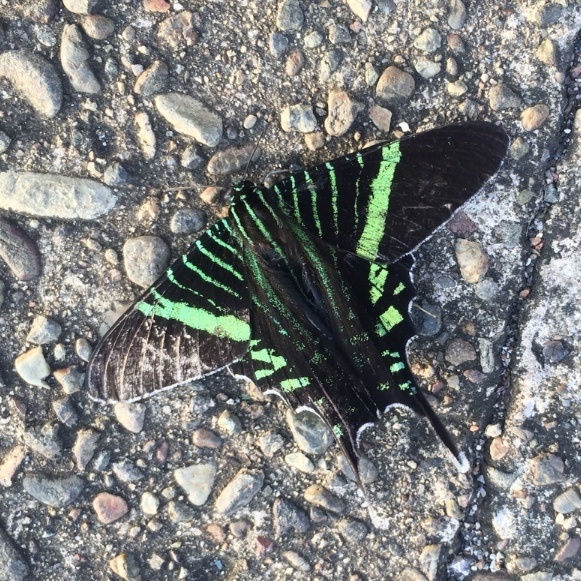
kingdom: Animalia
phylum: Arthropoda
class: Insecta
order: Lepidoptera
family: Uraniidae
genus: Urania
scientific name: Urania fulgens
